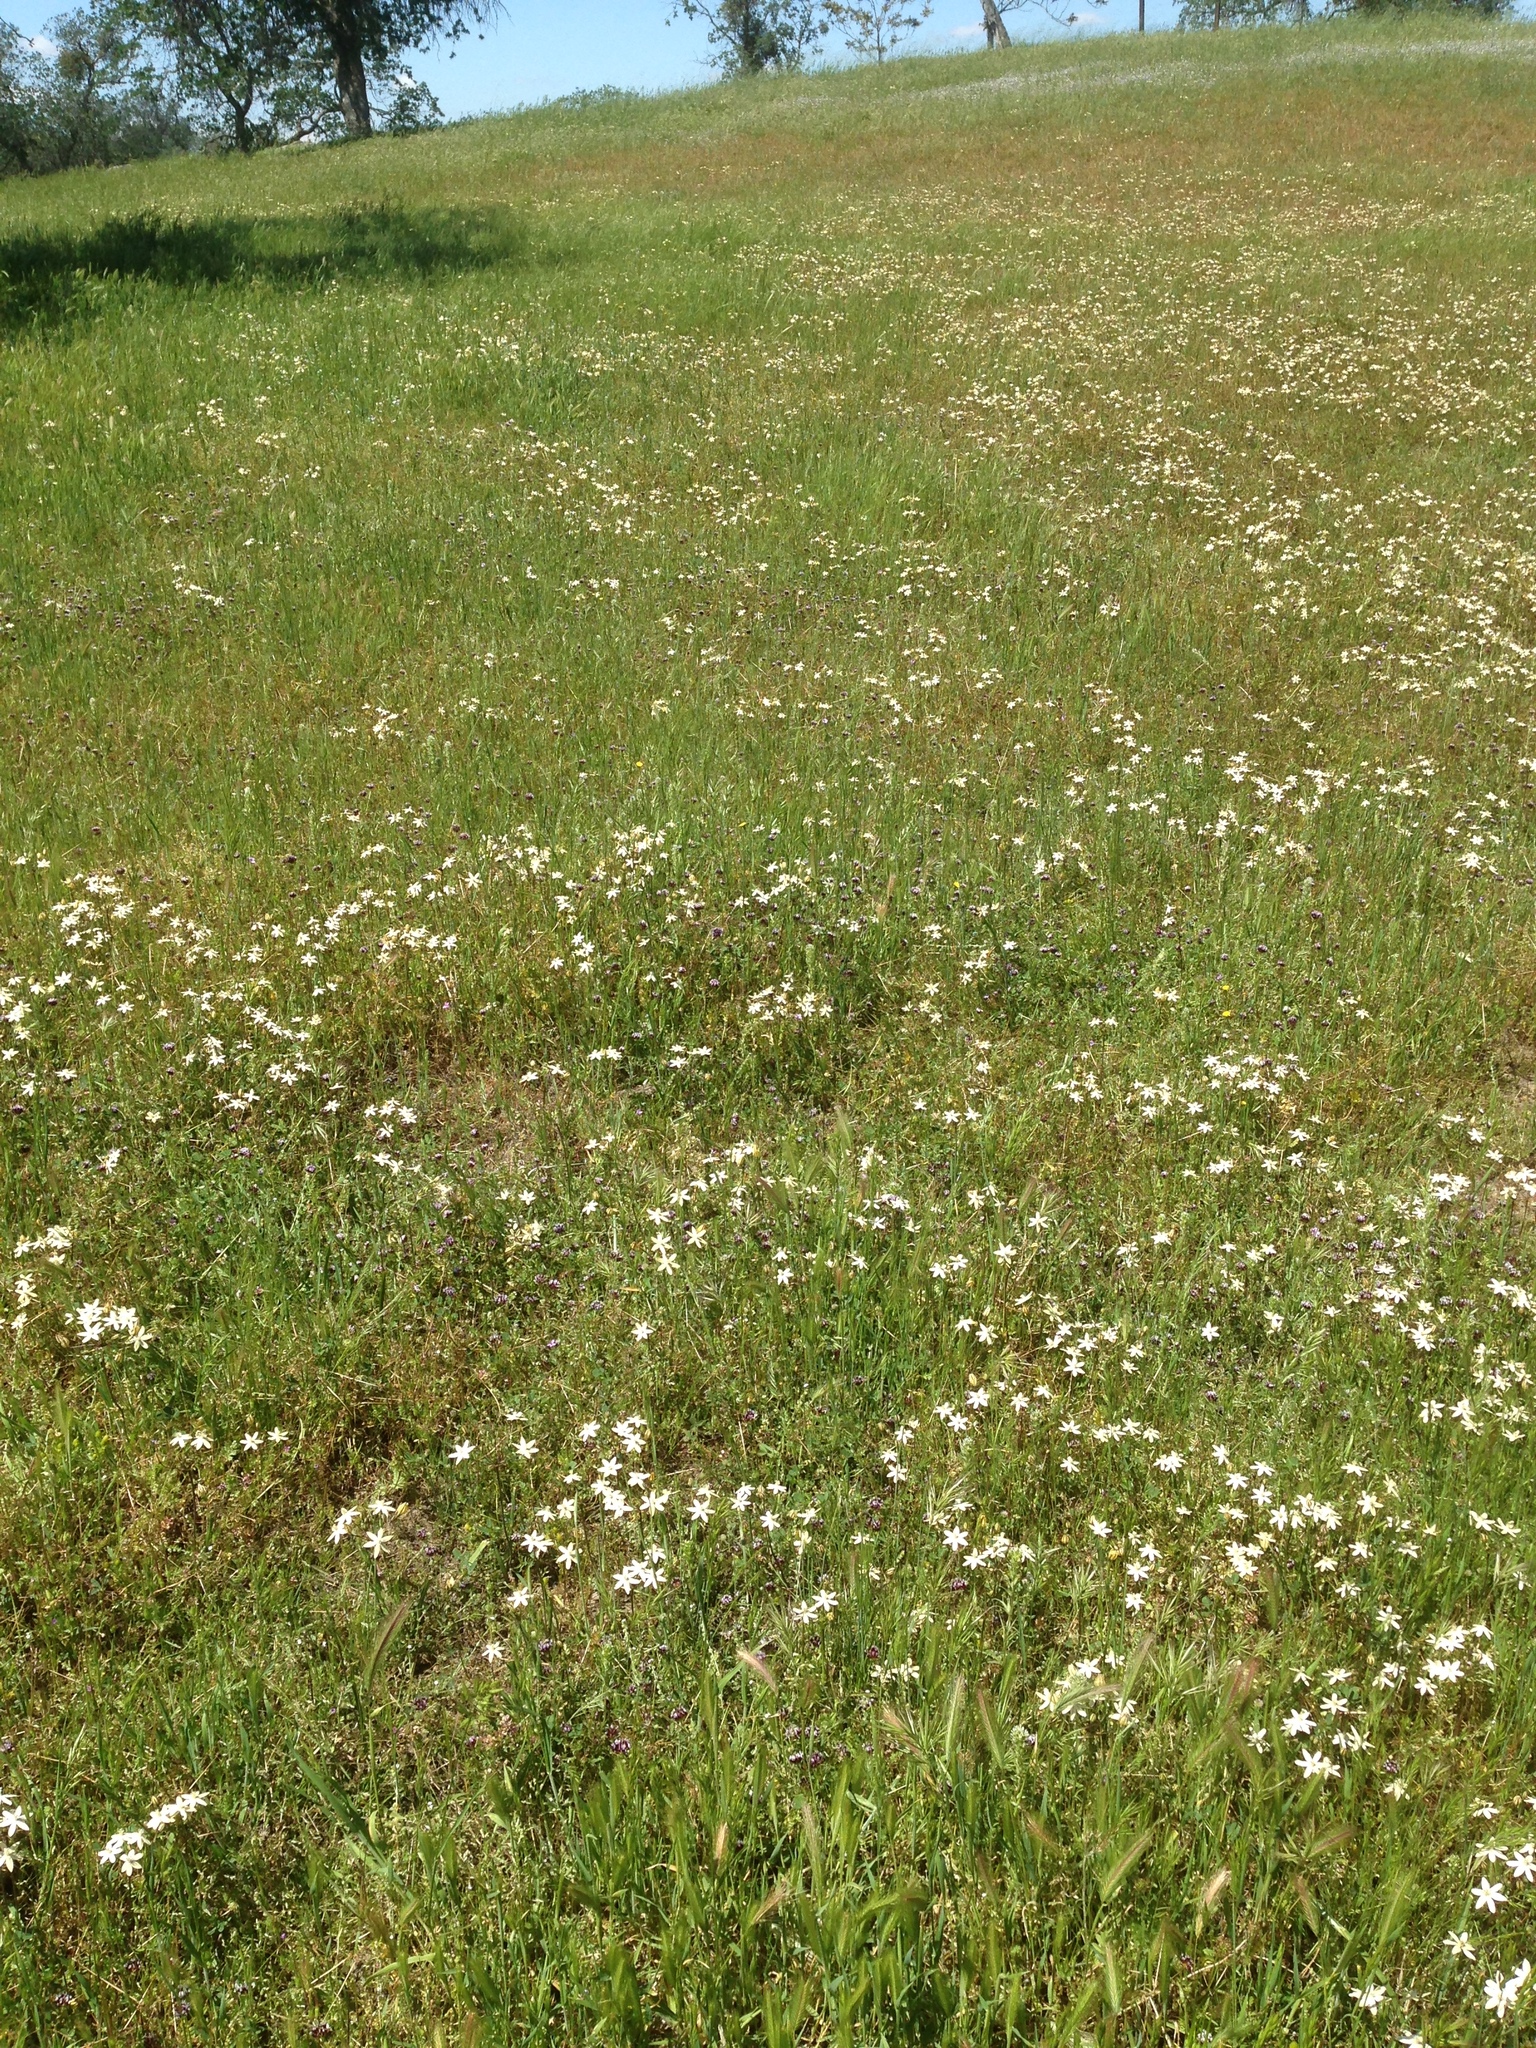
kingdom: Plantae
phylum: Tracheophyta
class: Liliopsida
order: Asparagales
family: Asparagaceae
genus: Triteleia
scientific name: Triteleia ixioides
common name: Yellow-brodiaea
